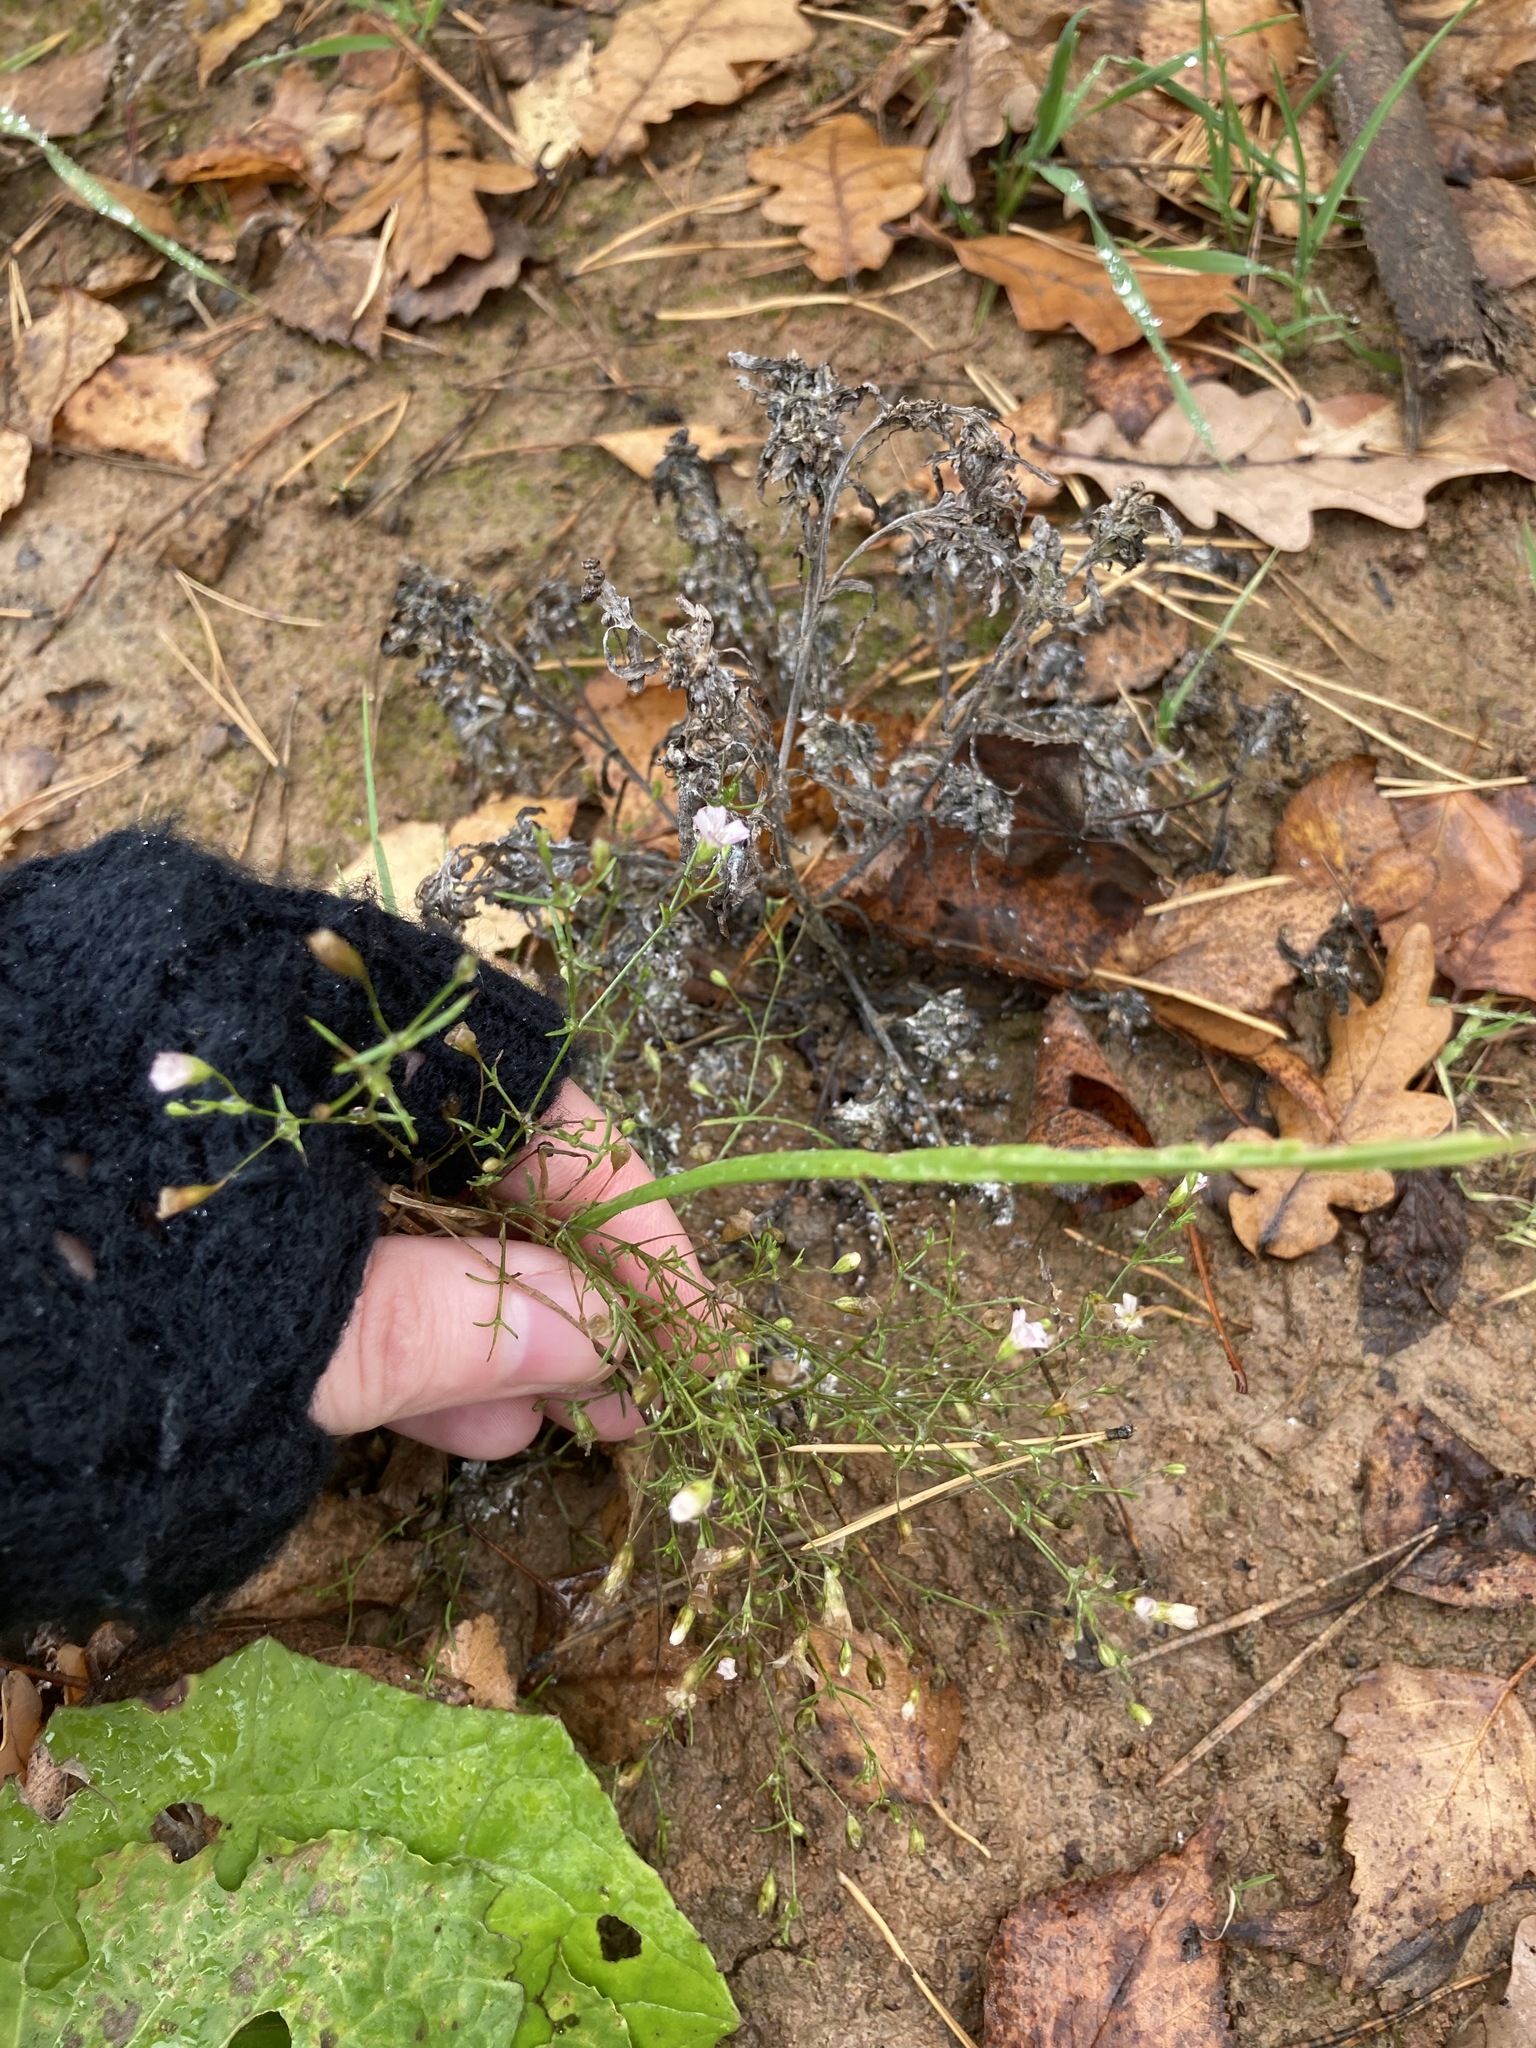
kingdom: Plantae
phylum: Tracheophyta
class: Magnoliopsida
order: Caryophyllales
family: Caryophyllaceae
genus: Psammophiliella
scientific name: Psammophiliella muralis
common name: Cushion baby's-breath
